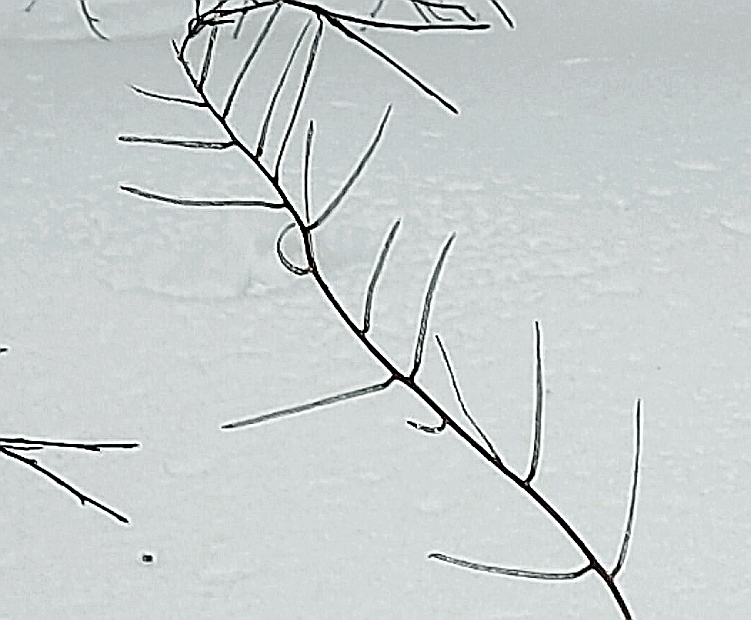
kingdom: Plantae
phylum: Tracheophyta
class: Magnoliopsida
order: Brassicales
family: Brassicaceae
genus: Alliaria
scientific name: Alliaria petiolata
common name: Garlic mustard
